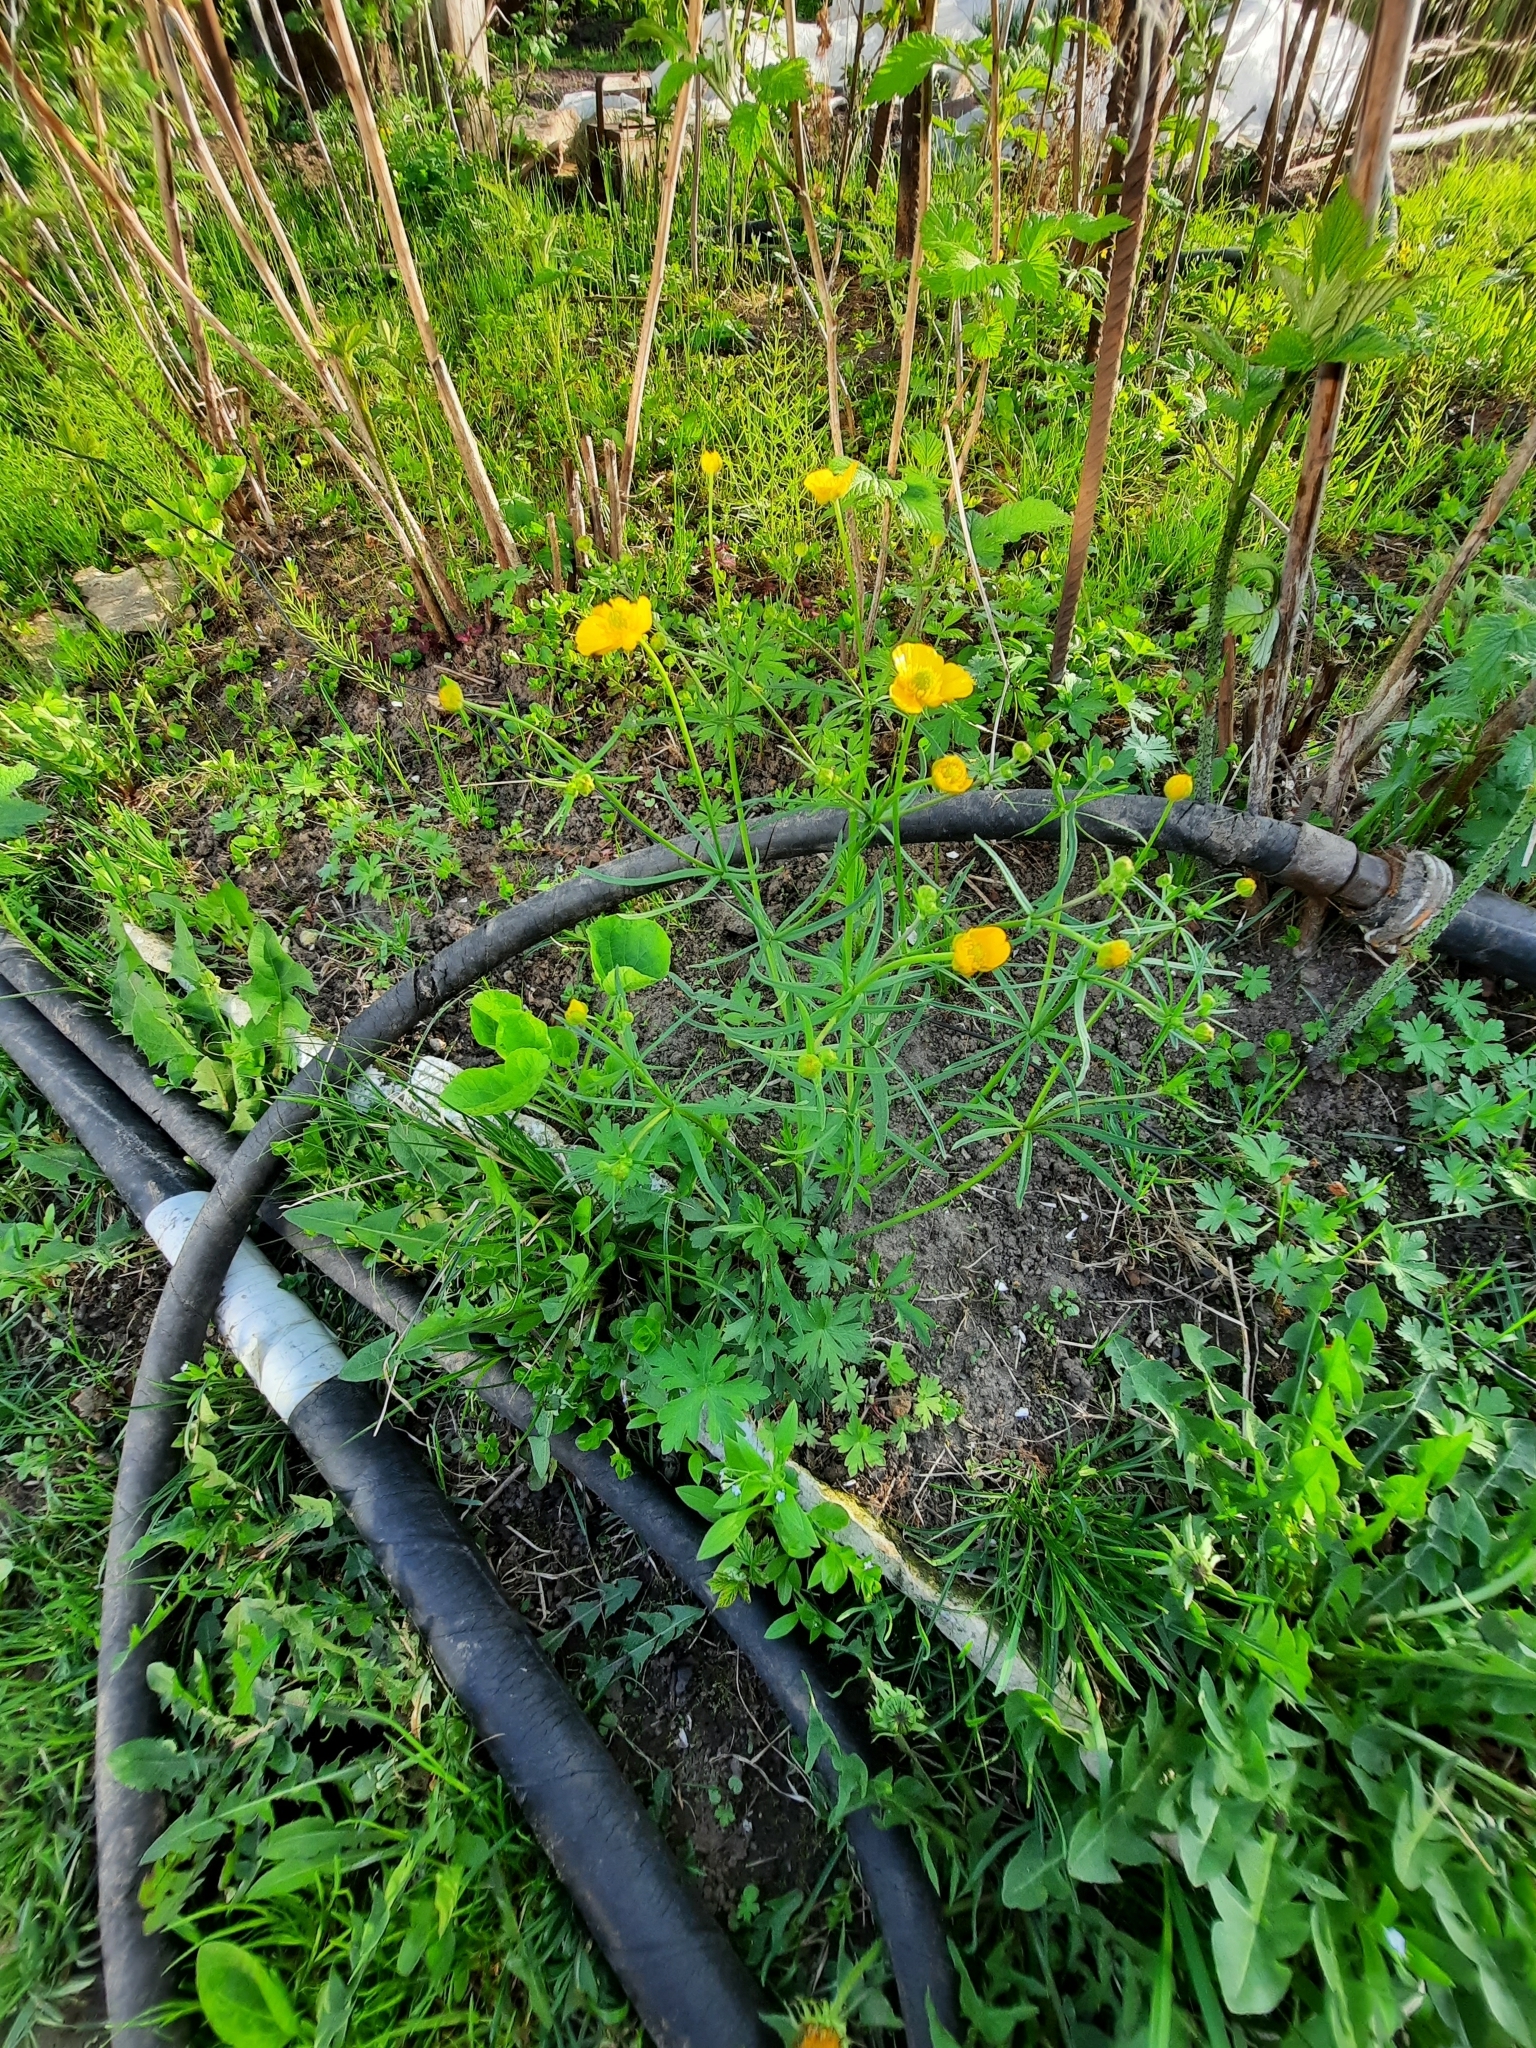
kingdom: Plantae
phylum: Tracheophyta
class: Magnoliopsida
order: Ranunculales
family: Ranunculaceae
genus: Ranunculus
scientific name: Ranunculus auricomus
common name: Goldilocks buttercup
